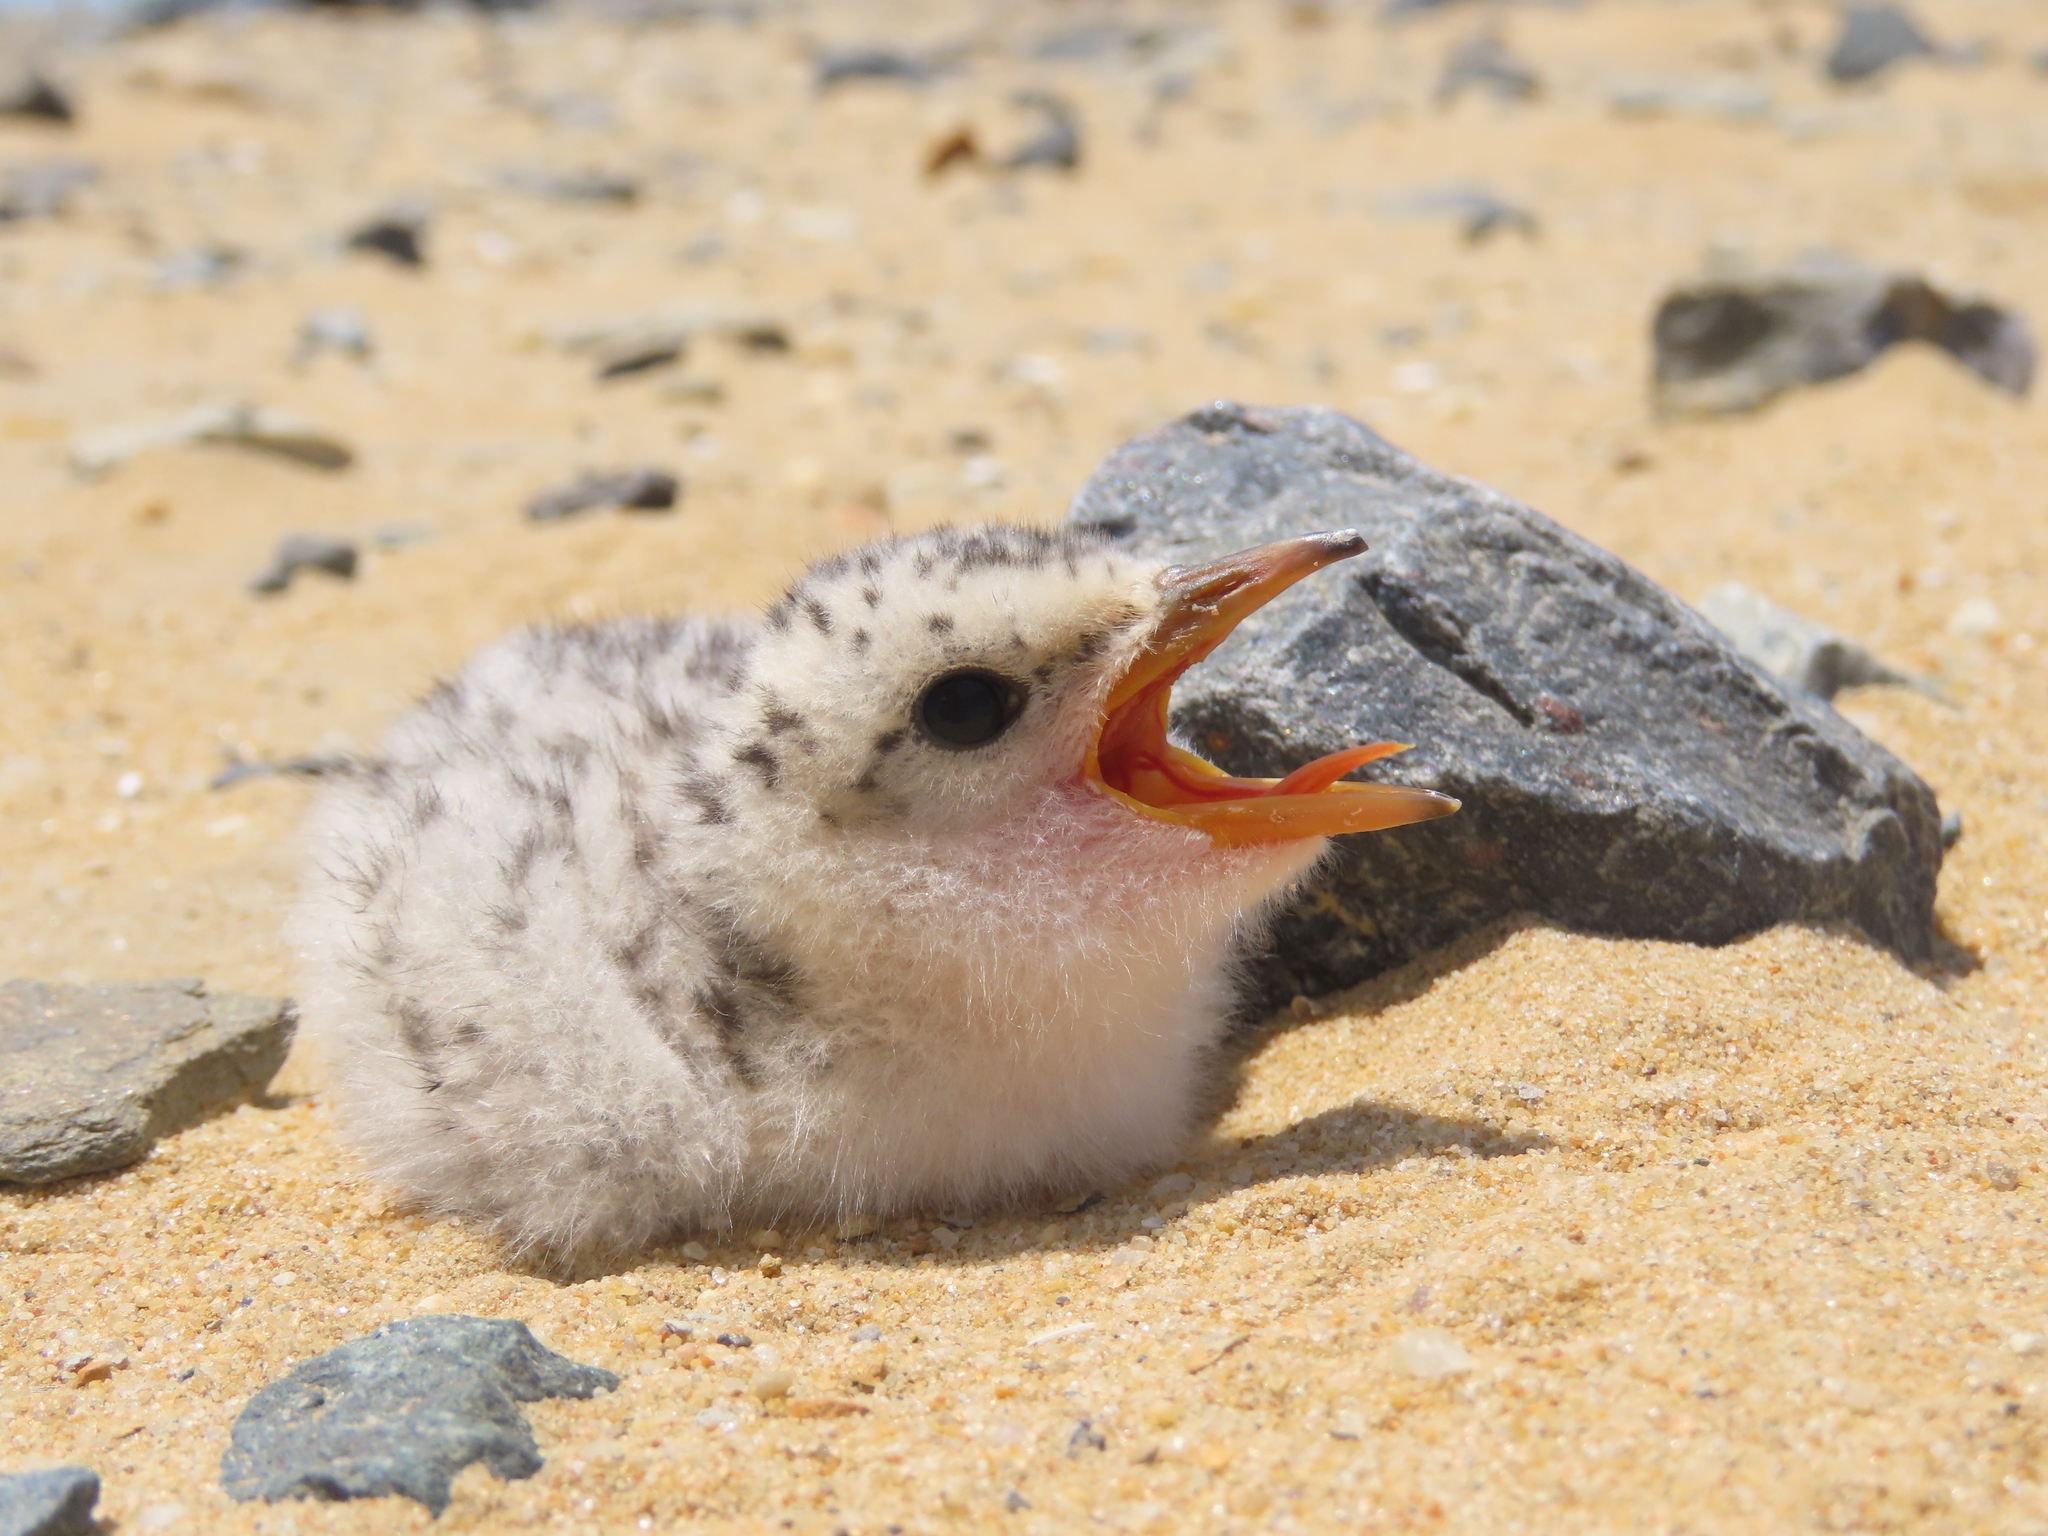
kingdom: Animalia
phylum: Chordata
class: Aves
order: Charadriiformes
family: Laridae
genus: Sternula
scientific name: Sternula antillarum
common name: Least tern
